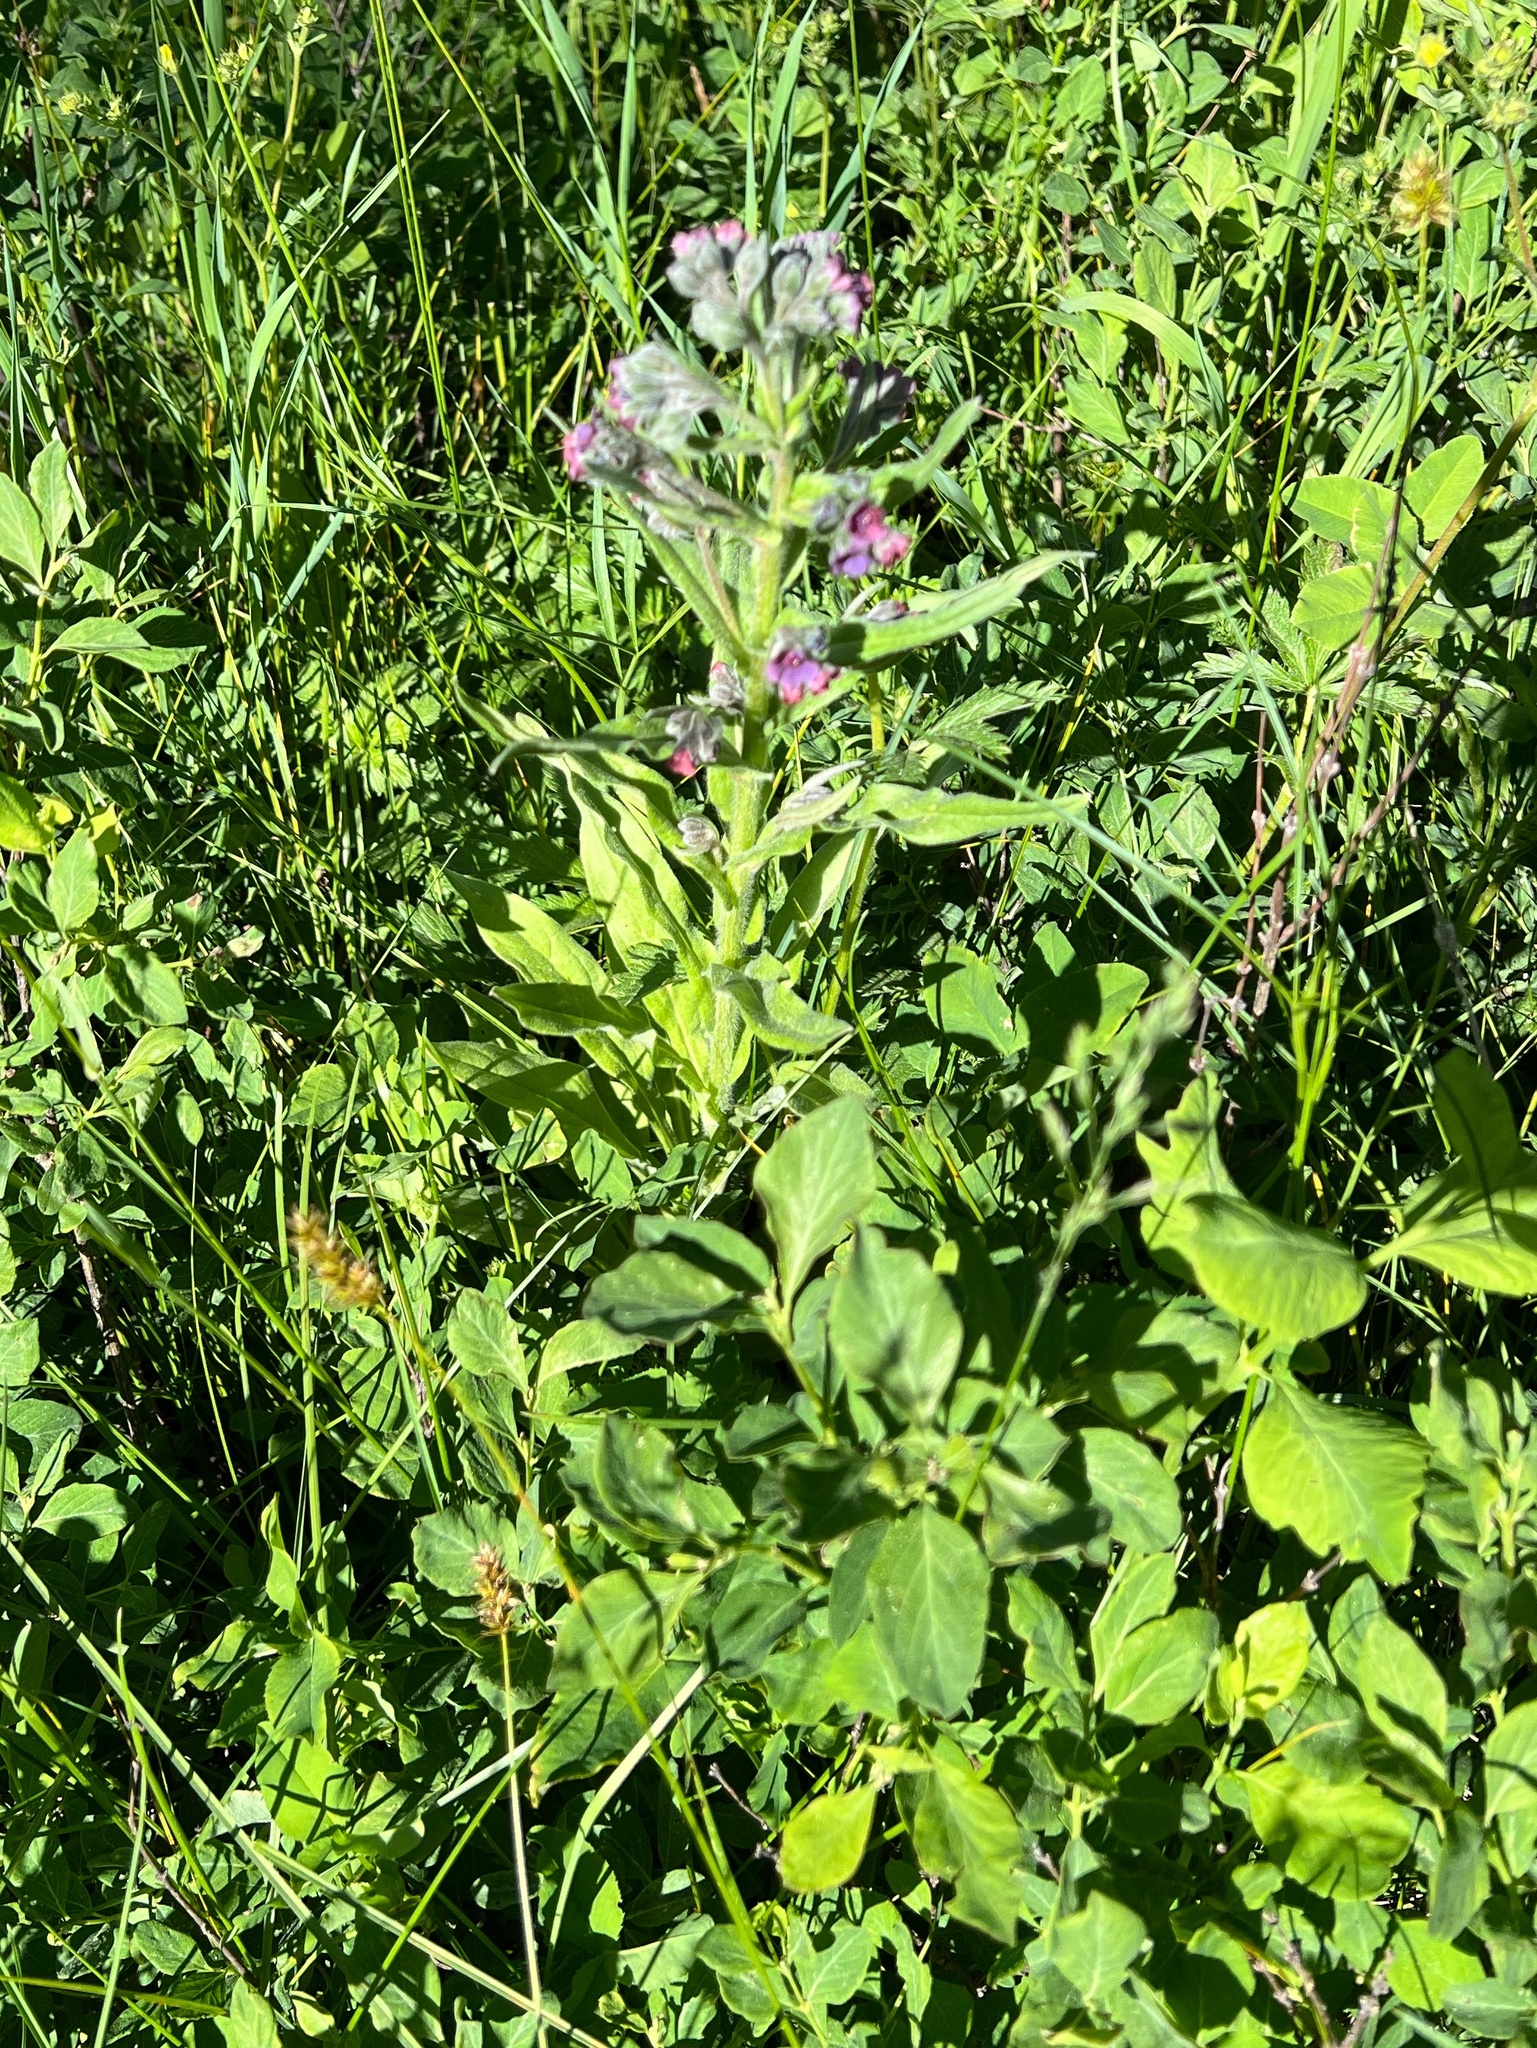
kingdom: Plantae
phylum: Tracheophyta
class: Magnoliopsida
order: Boraginales
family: Boraginaceae
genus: Cynoglossum
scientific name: Cynoglossum officinale
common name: Hound's-tongue
